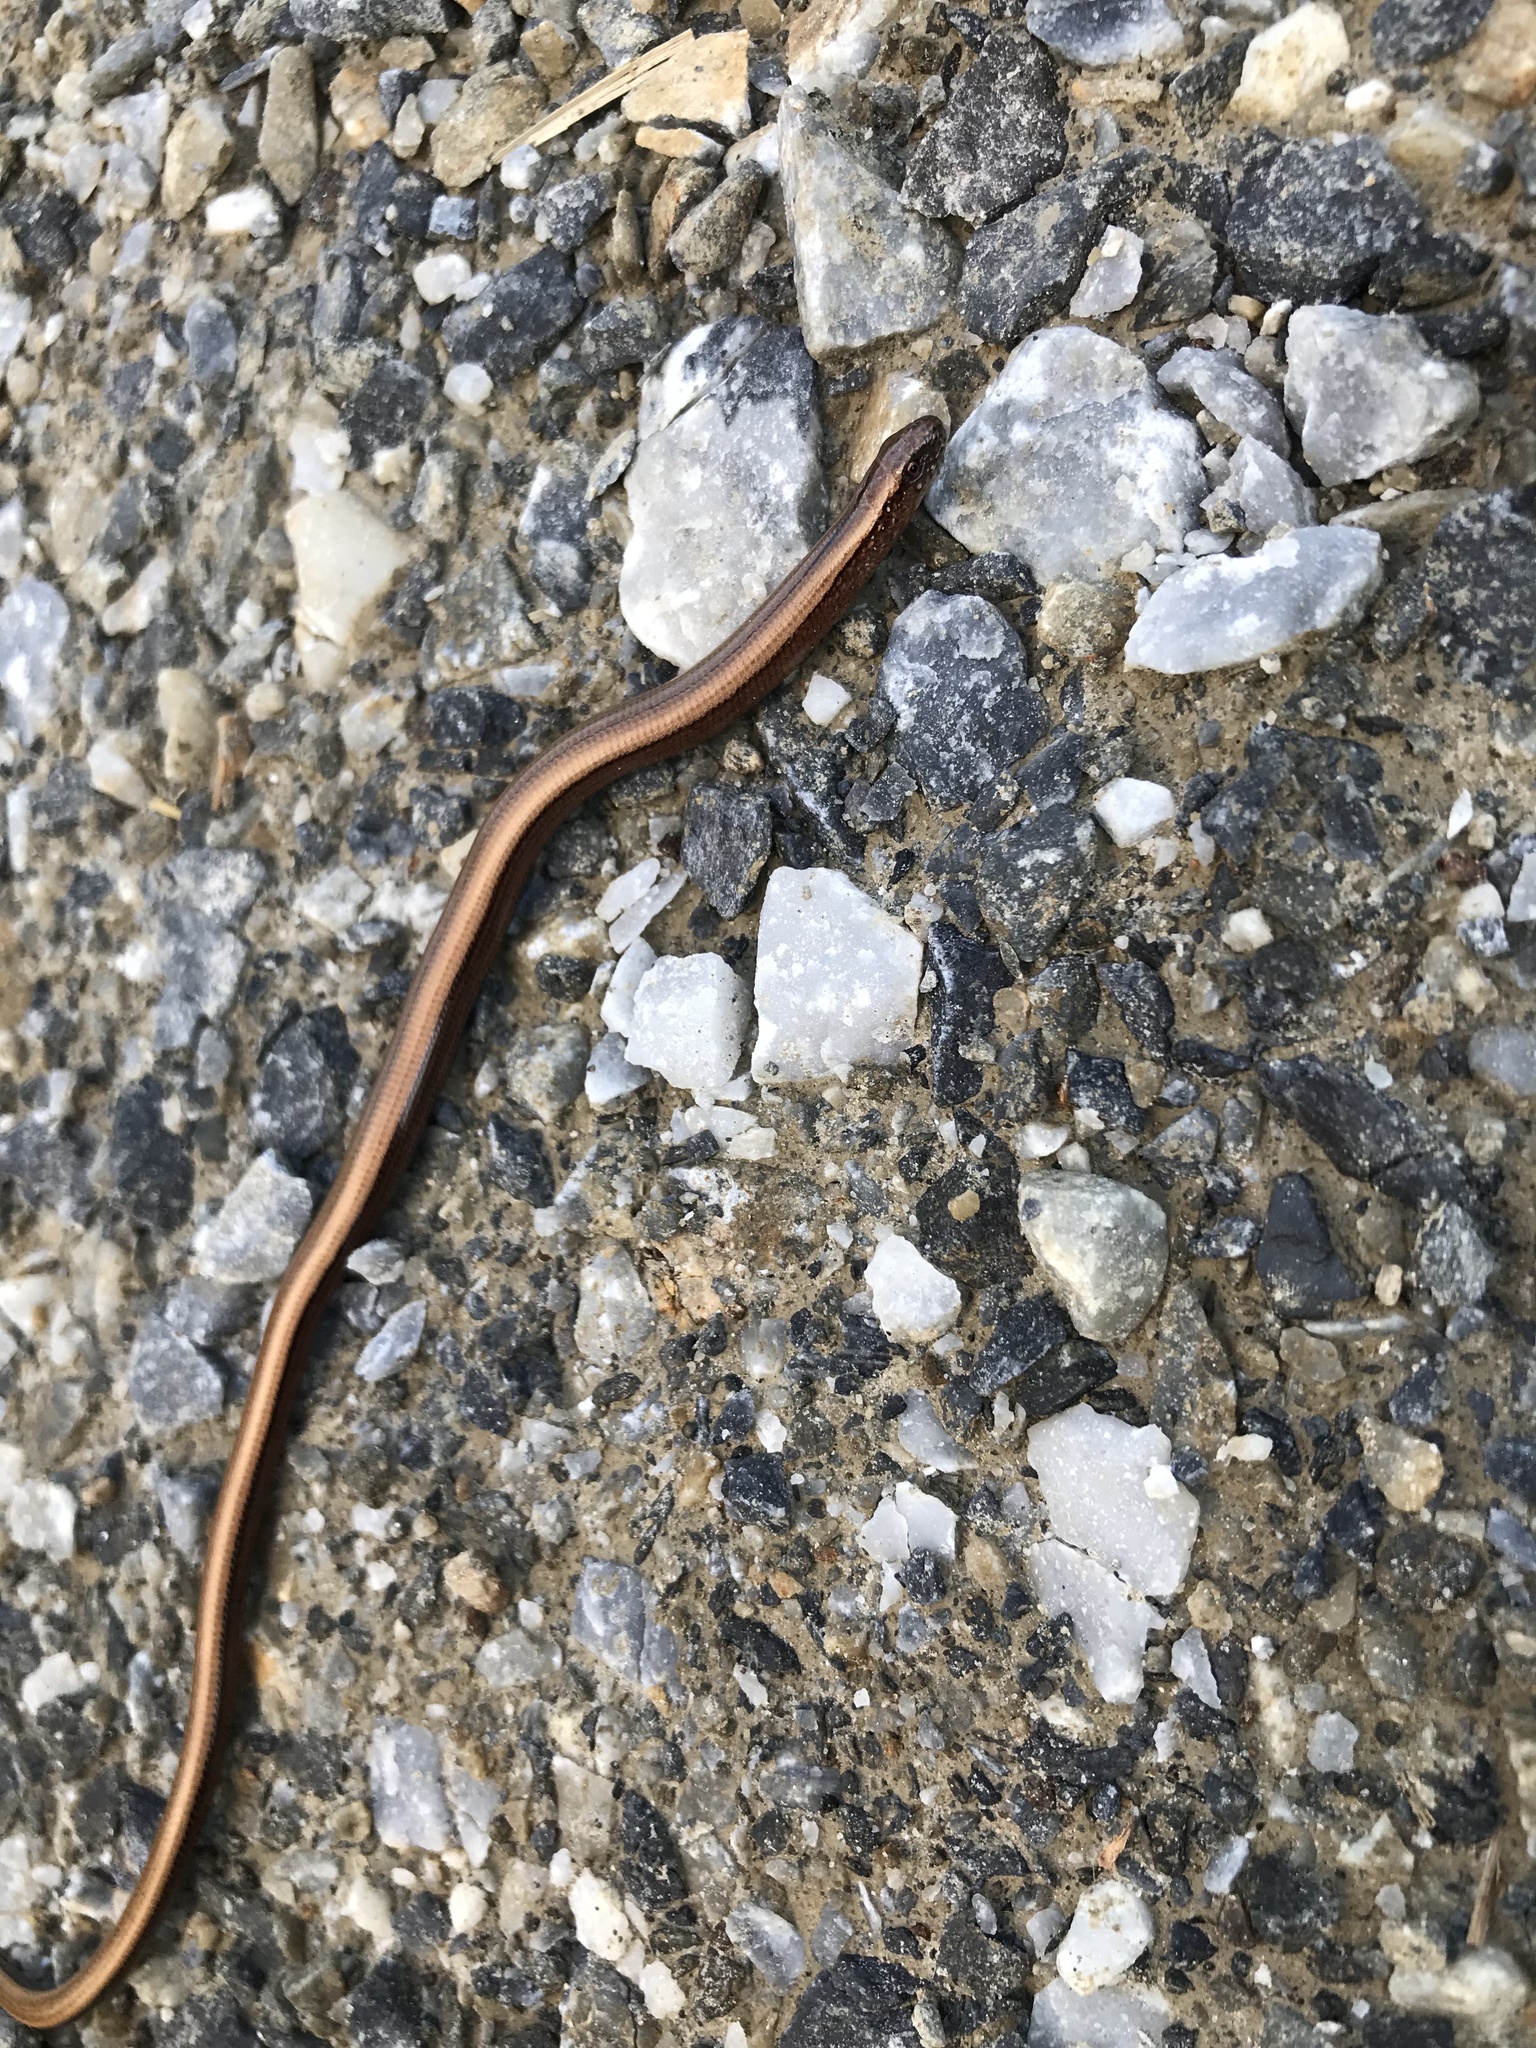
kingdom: Animalia
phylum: Chordata
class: Squamata
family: Anguidae
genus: Anguis
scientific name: Anguis fragilis
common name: Slow worm
